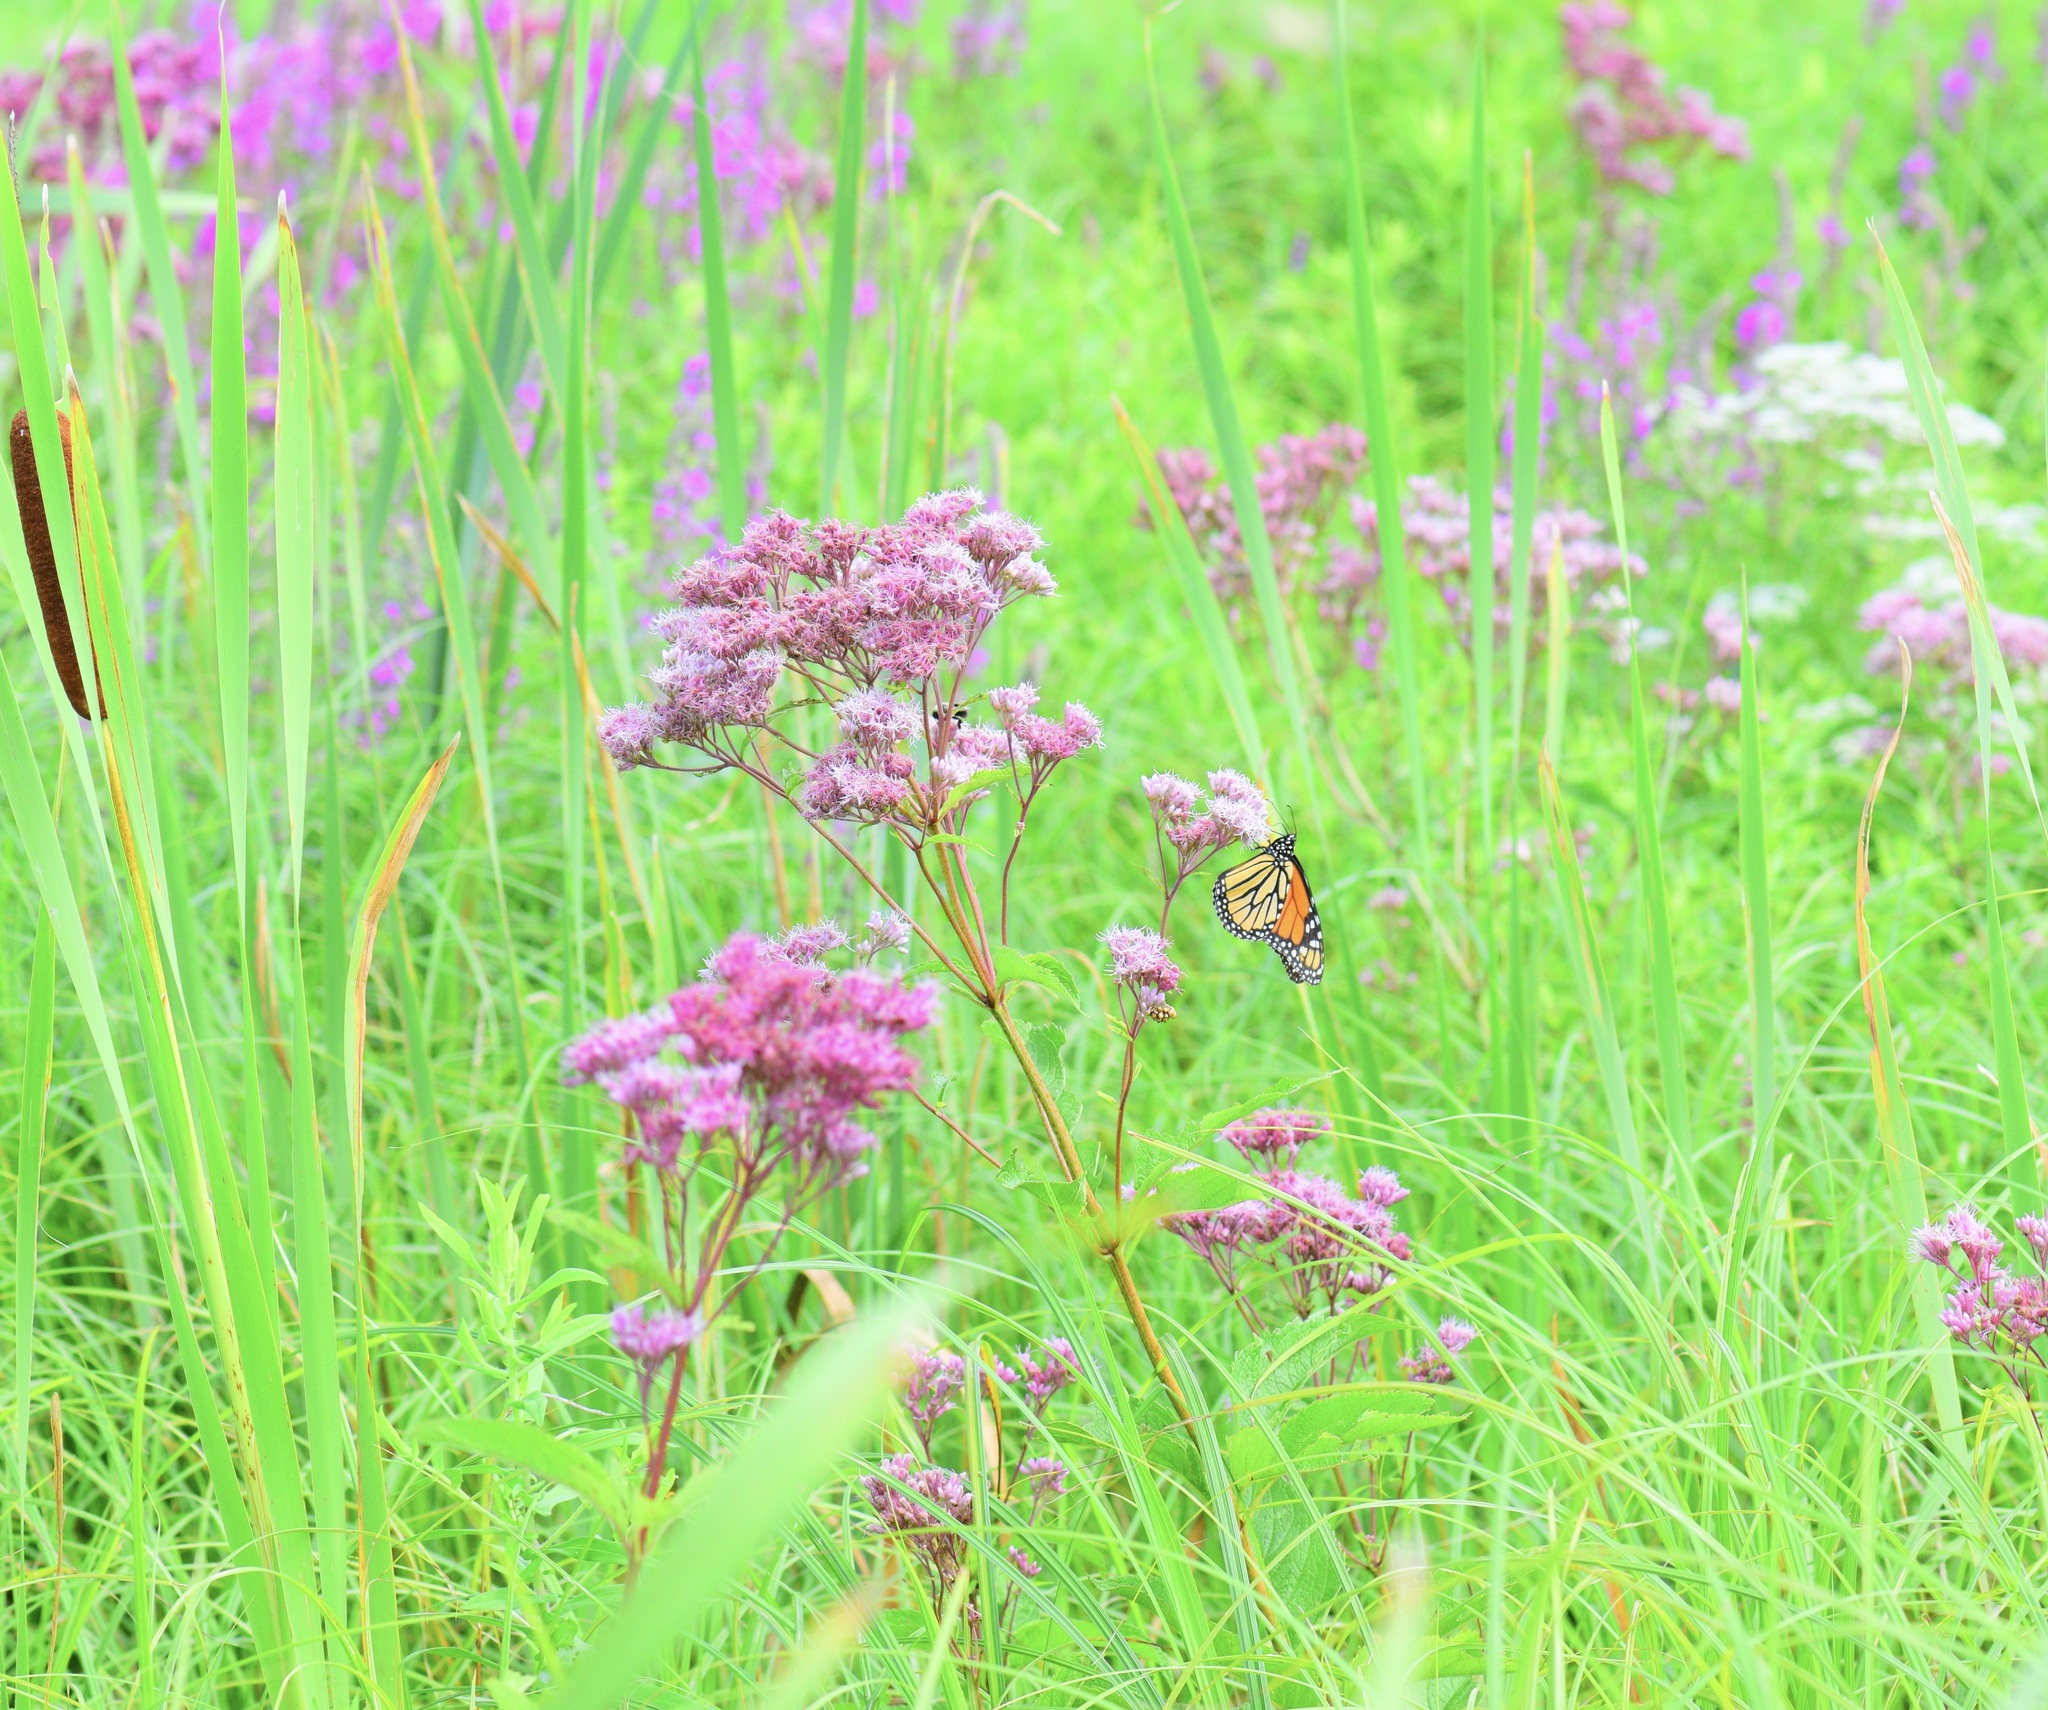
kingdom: Animalia
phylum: Arthropoda
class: Insecta
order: Lepidoptera
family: Nymphalidae
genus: Danaus
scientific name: Danaus plexippus
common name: Monarch
